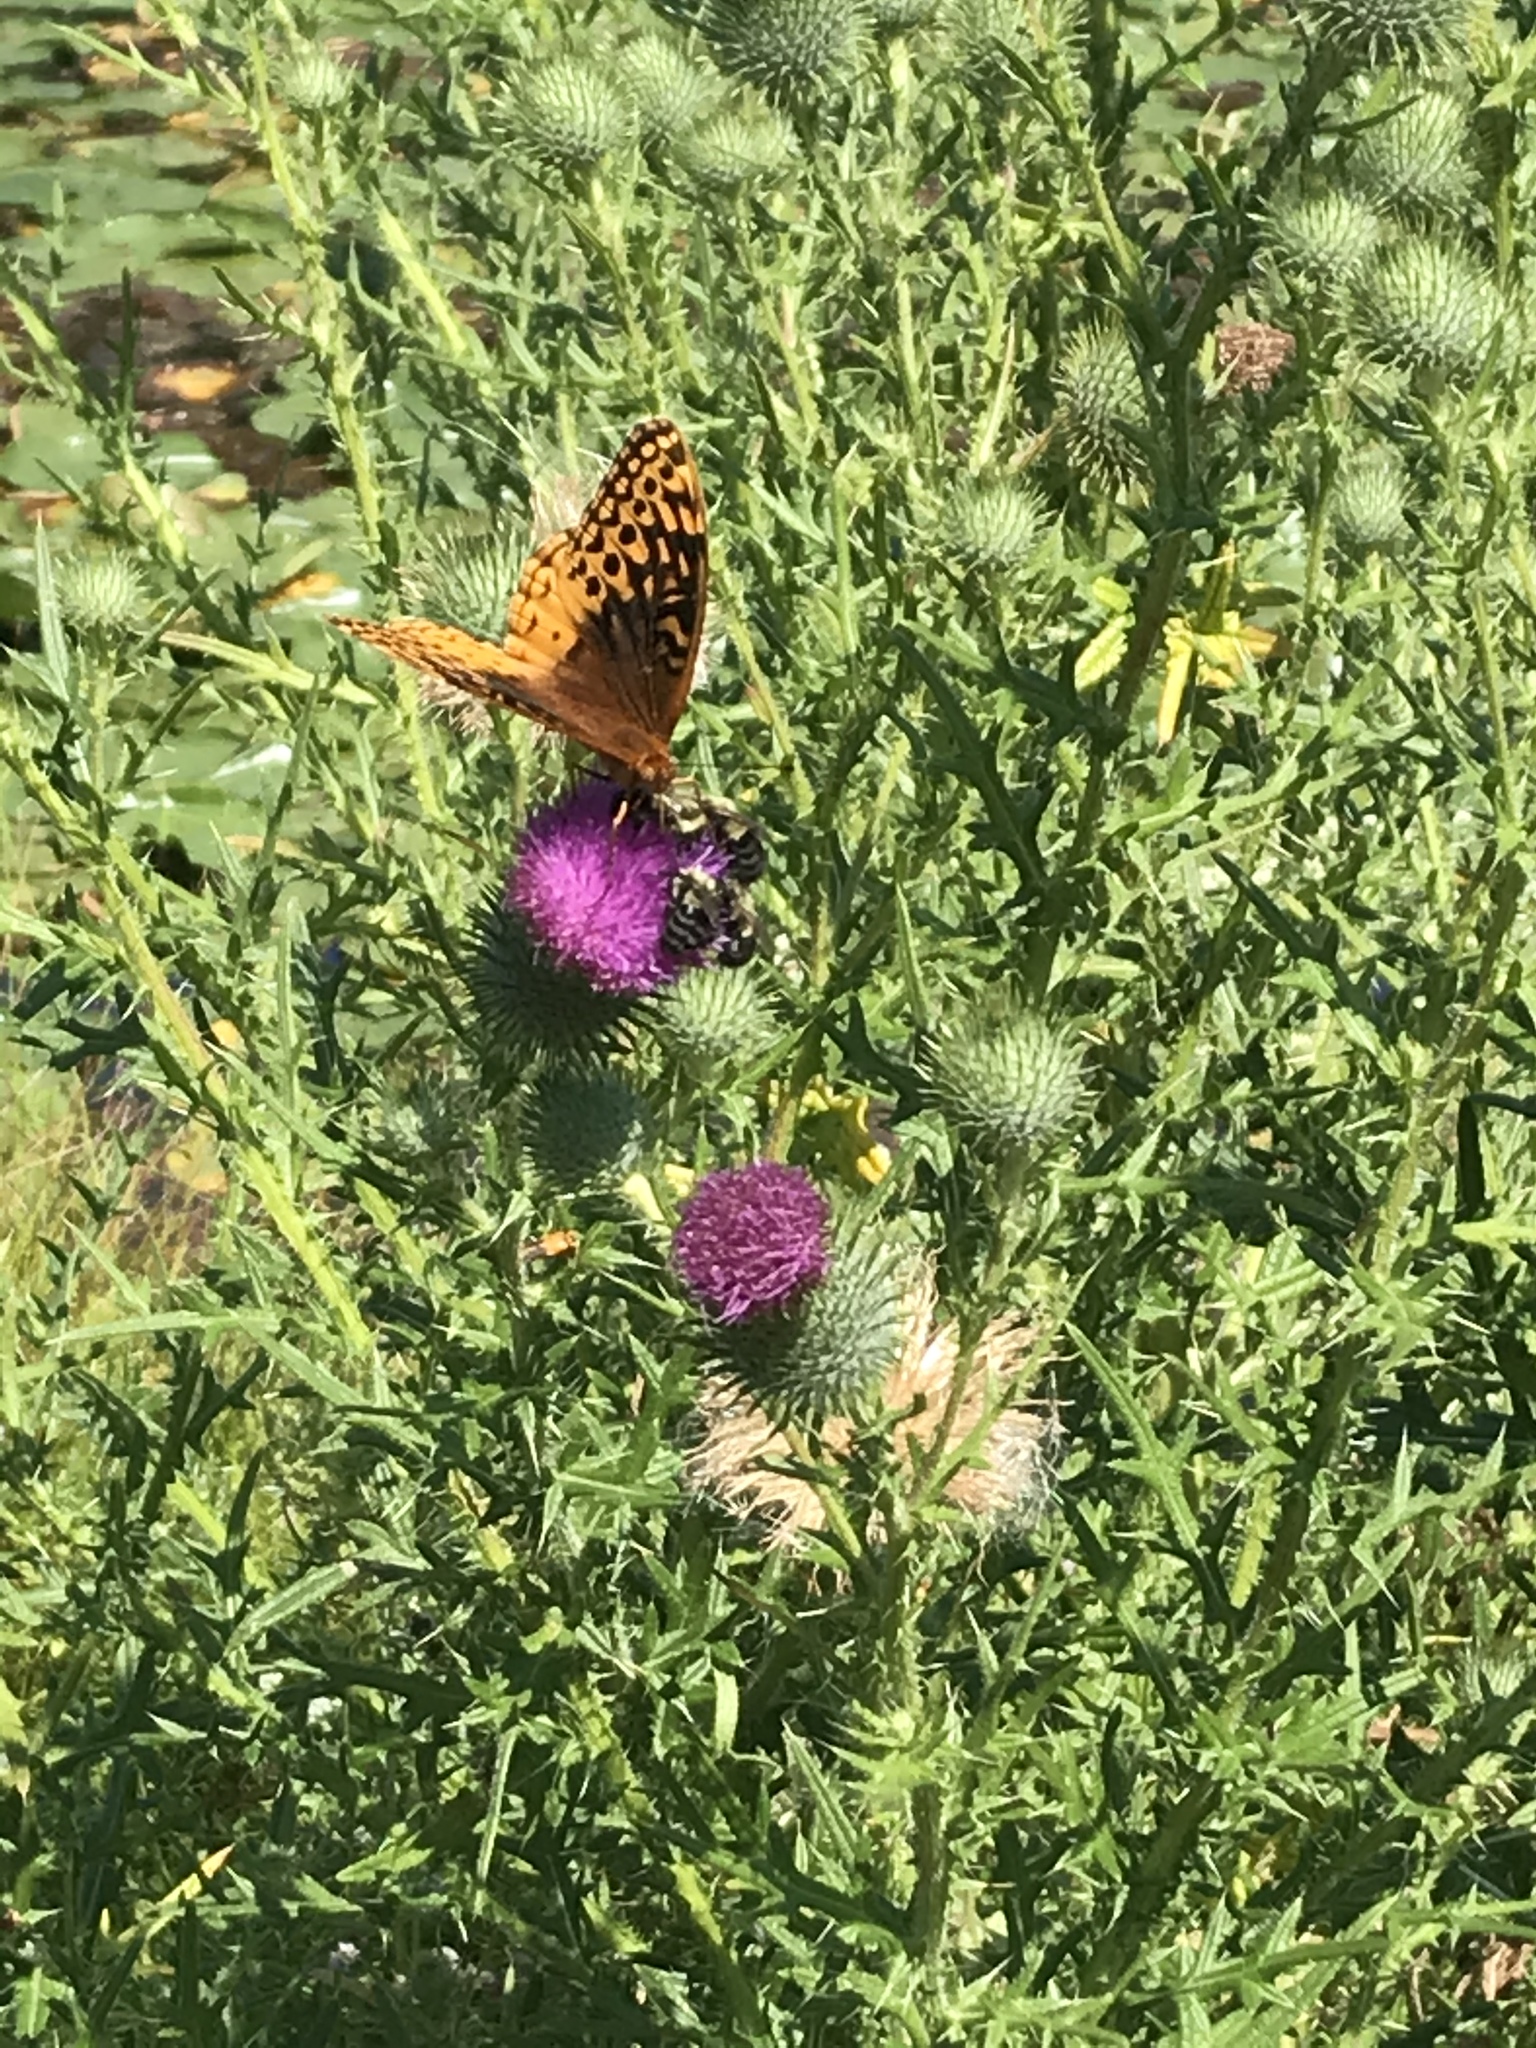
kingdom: Animalia
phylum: Arthropoda
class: Insecta
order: Lepidoptera
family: Nymphalidae
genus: Speyeria
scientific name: Speyeria cybele
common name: Great spangled fritillary
